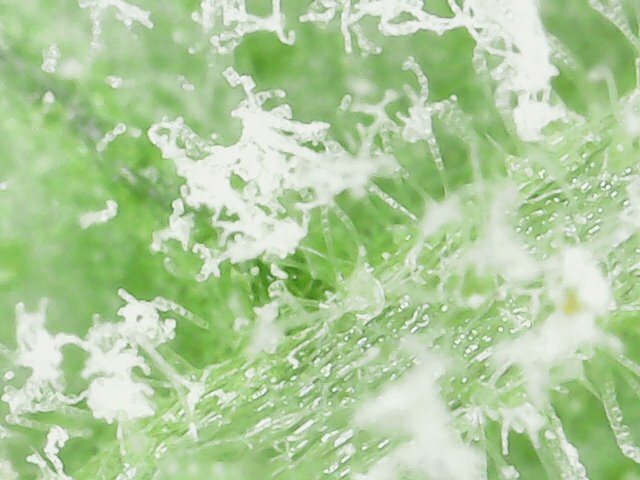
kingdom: Fungi
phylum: Ascomycota
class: Leotiomycetes
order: Helotiales
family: Erysiphaceae
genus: Podosphaera
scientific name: Podosphaera fusca
